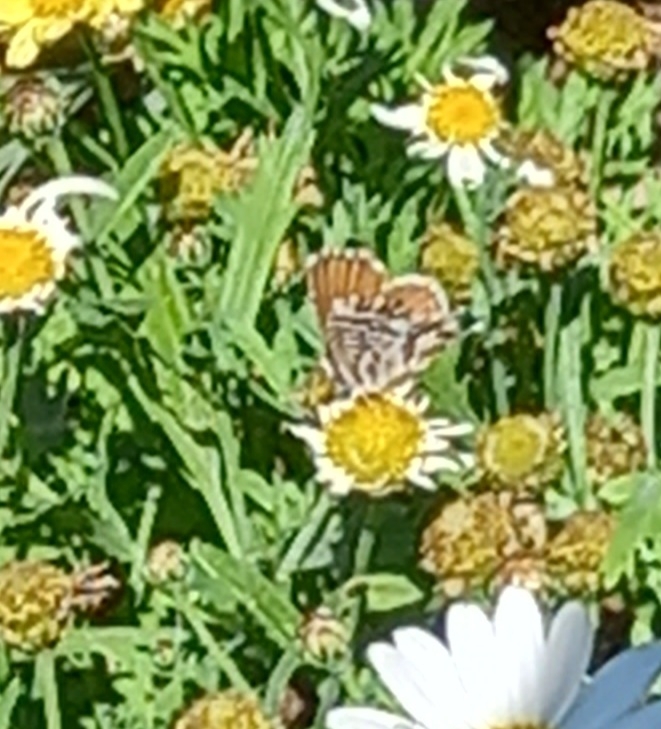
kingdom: Animalia
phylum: Arthropoda
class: Insecta
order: Lepidoptera
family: Lycaenidae
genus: Cacyreus
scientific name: Cacyreus marshalli
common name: Geranium bronze
